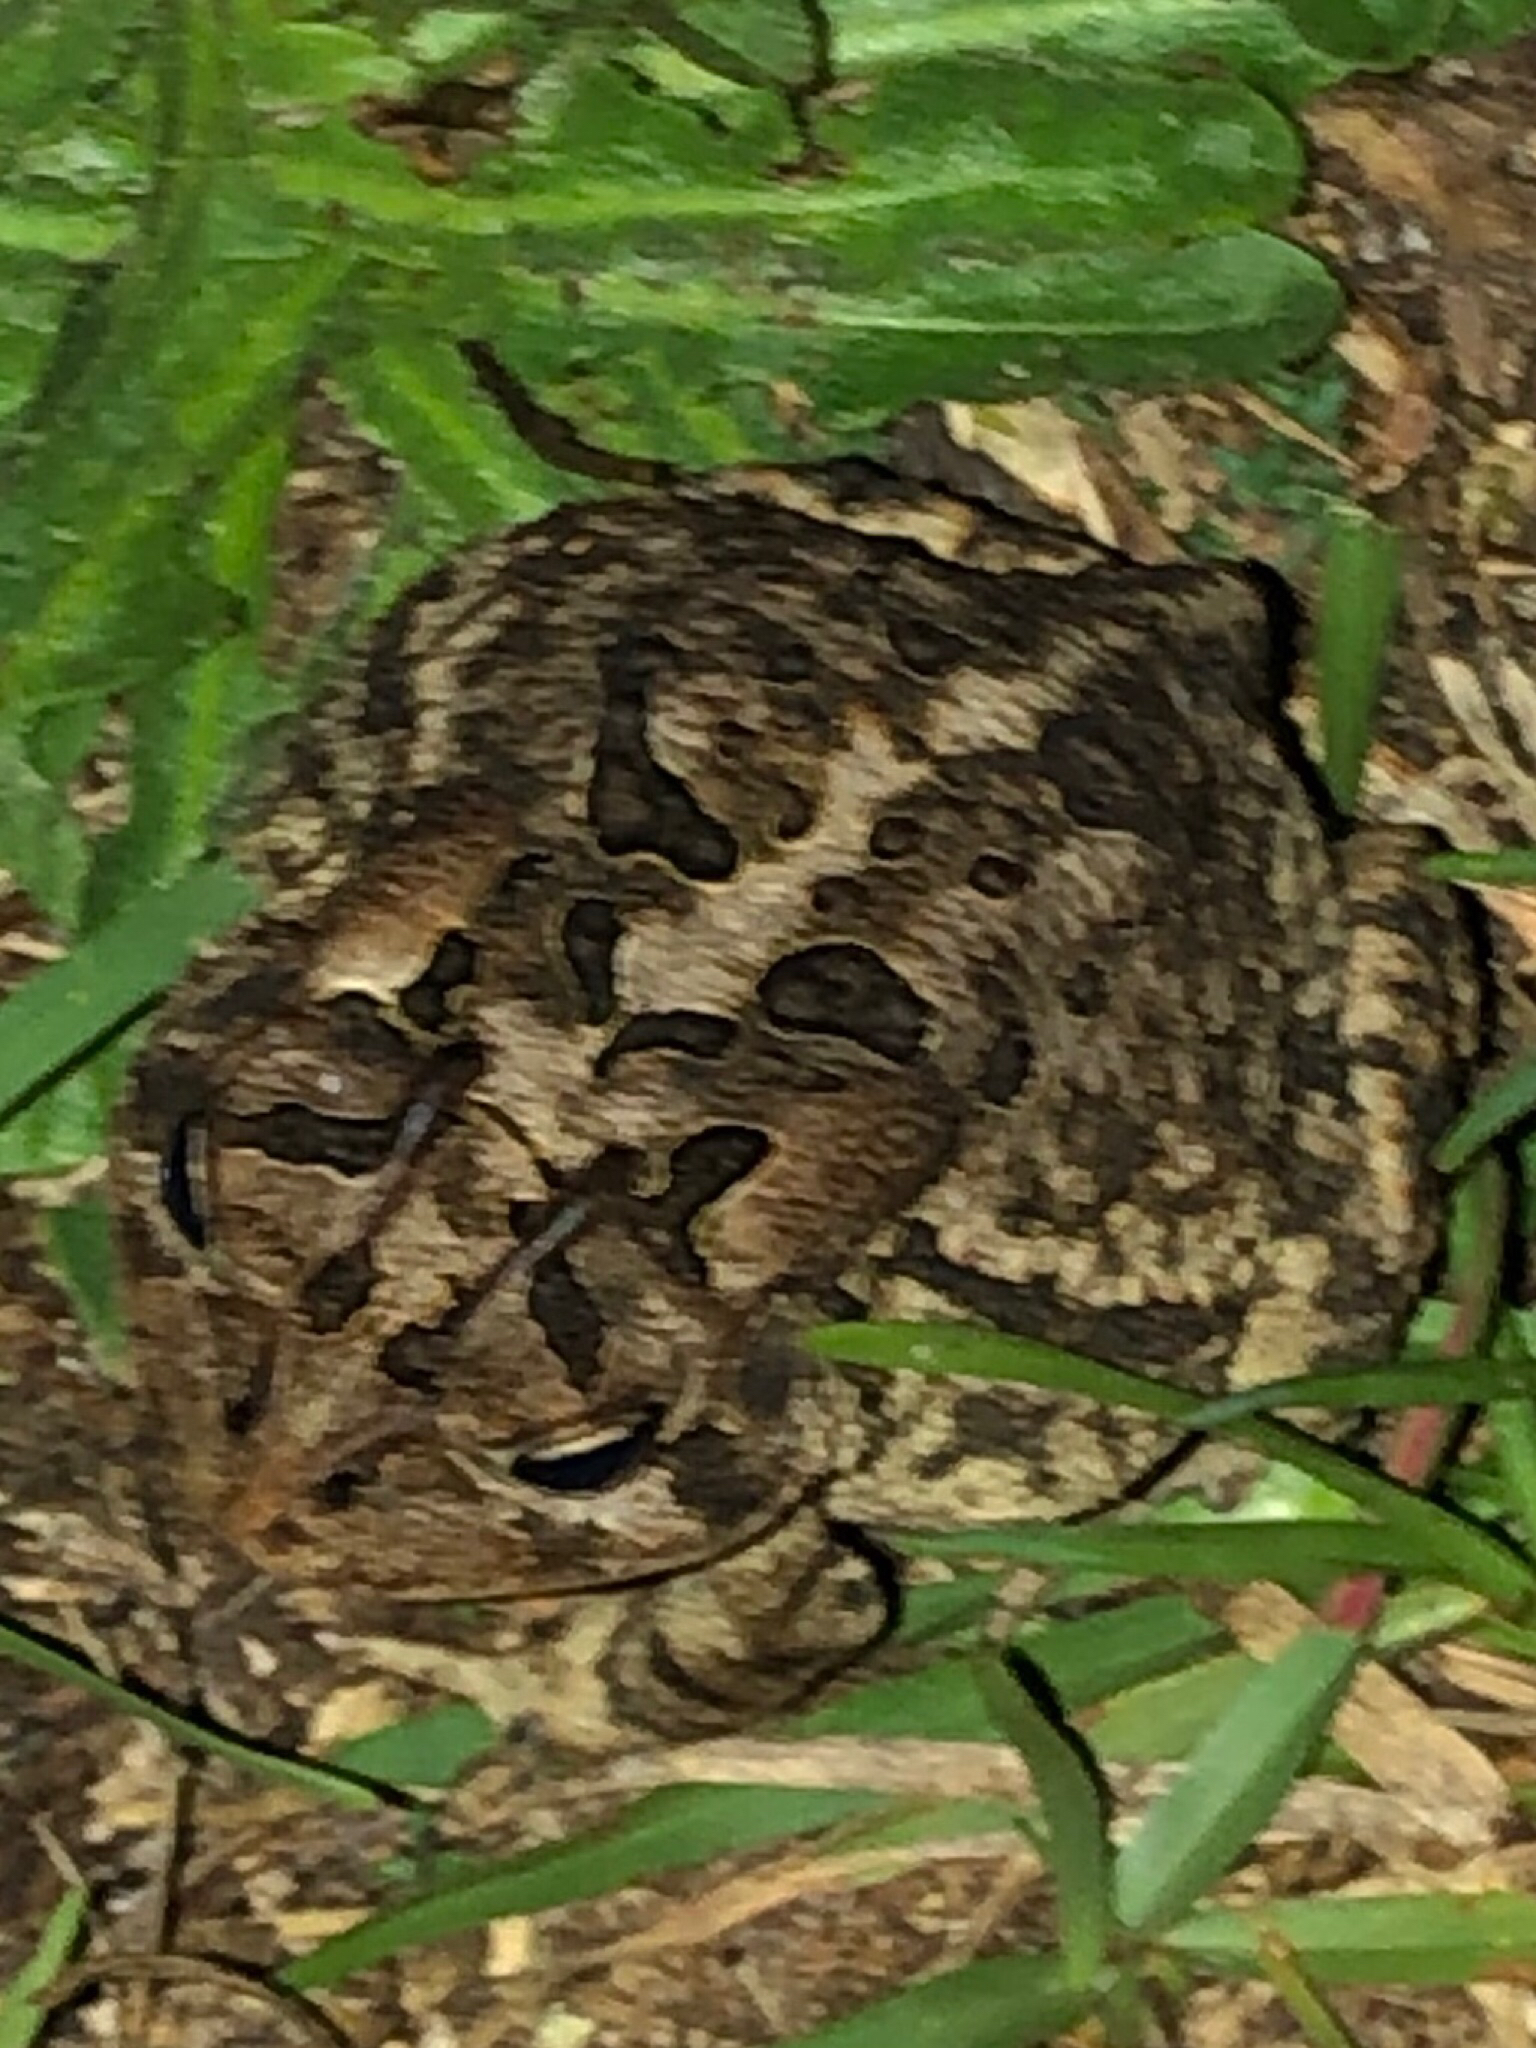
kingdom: Animalia
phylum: Chordata
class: Amphibia
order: Anura
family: Bufonidae
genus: Anaxyrus
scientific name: Anaxyrus terrestris
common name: Southern toad
